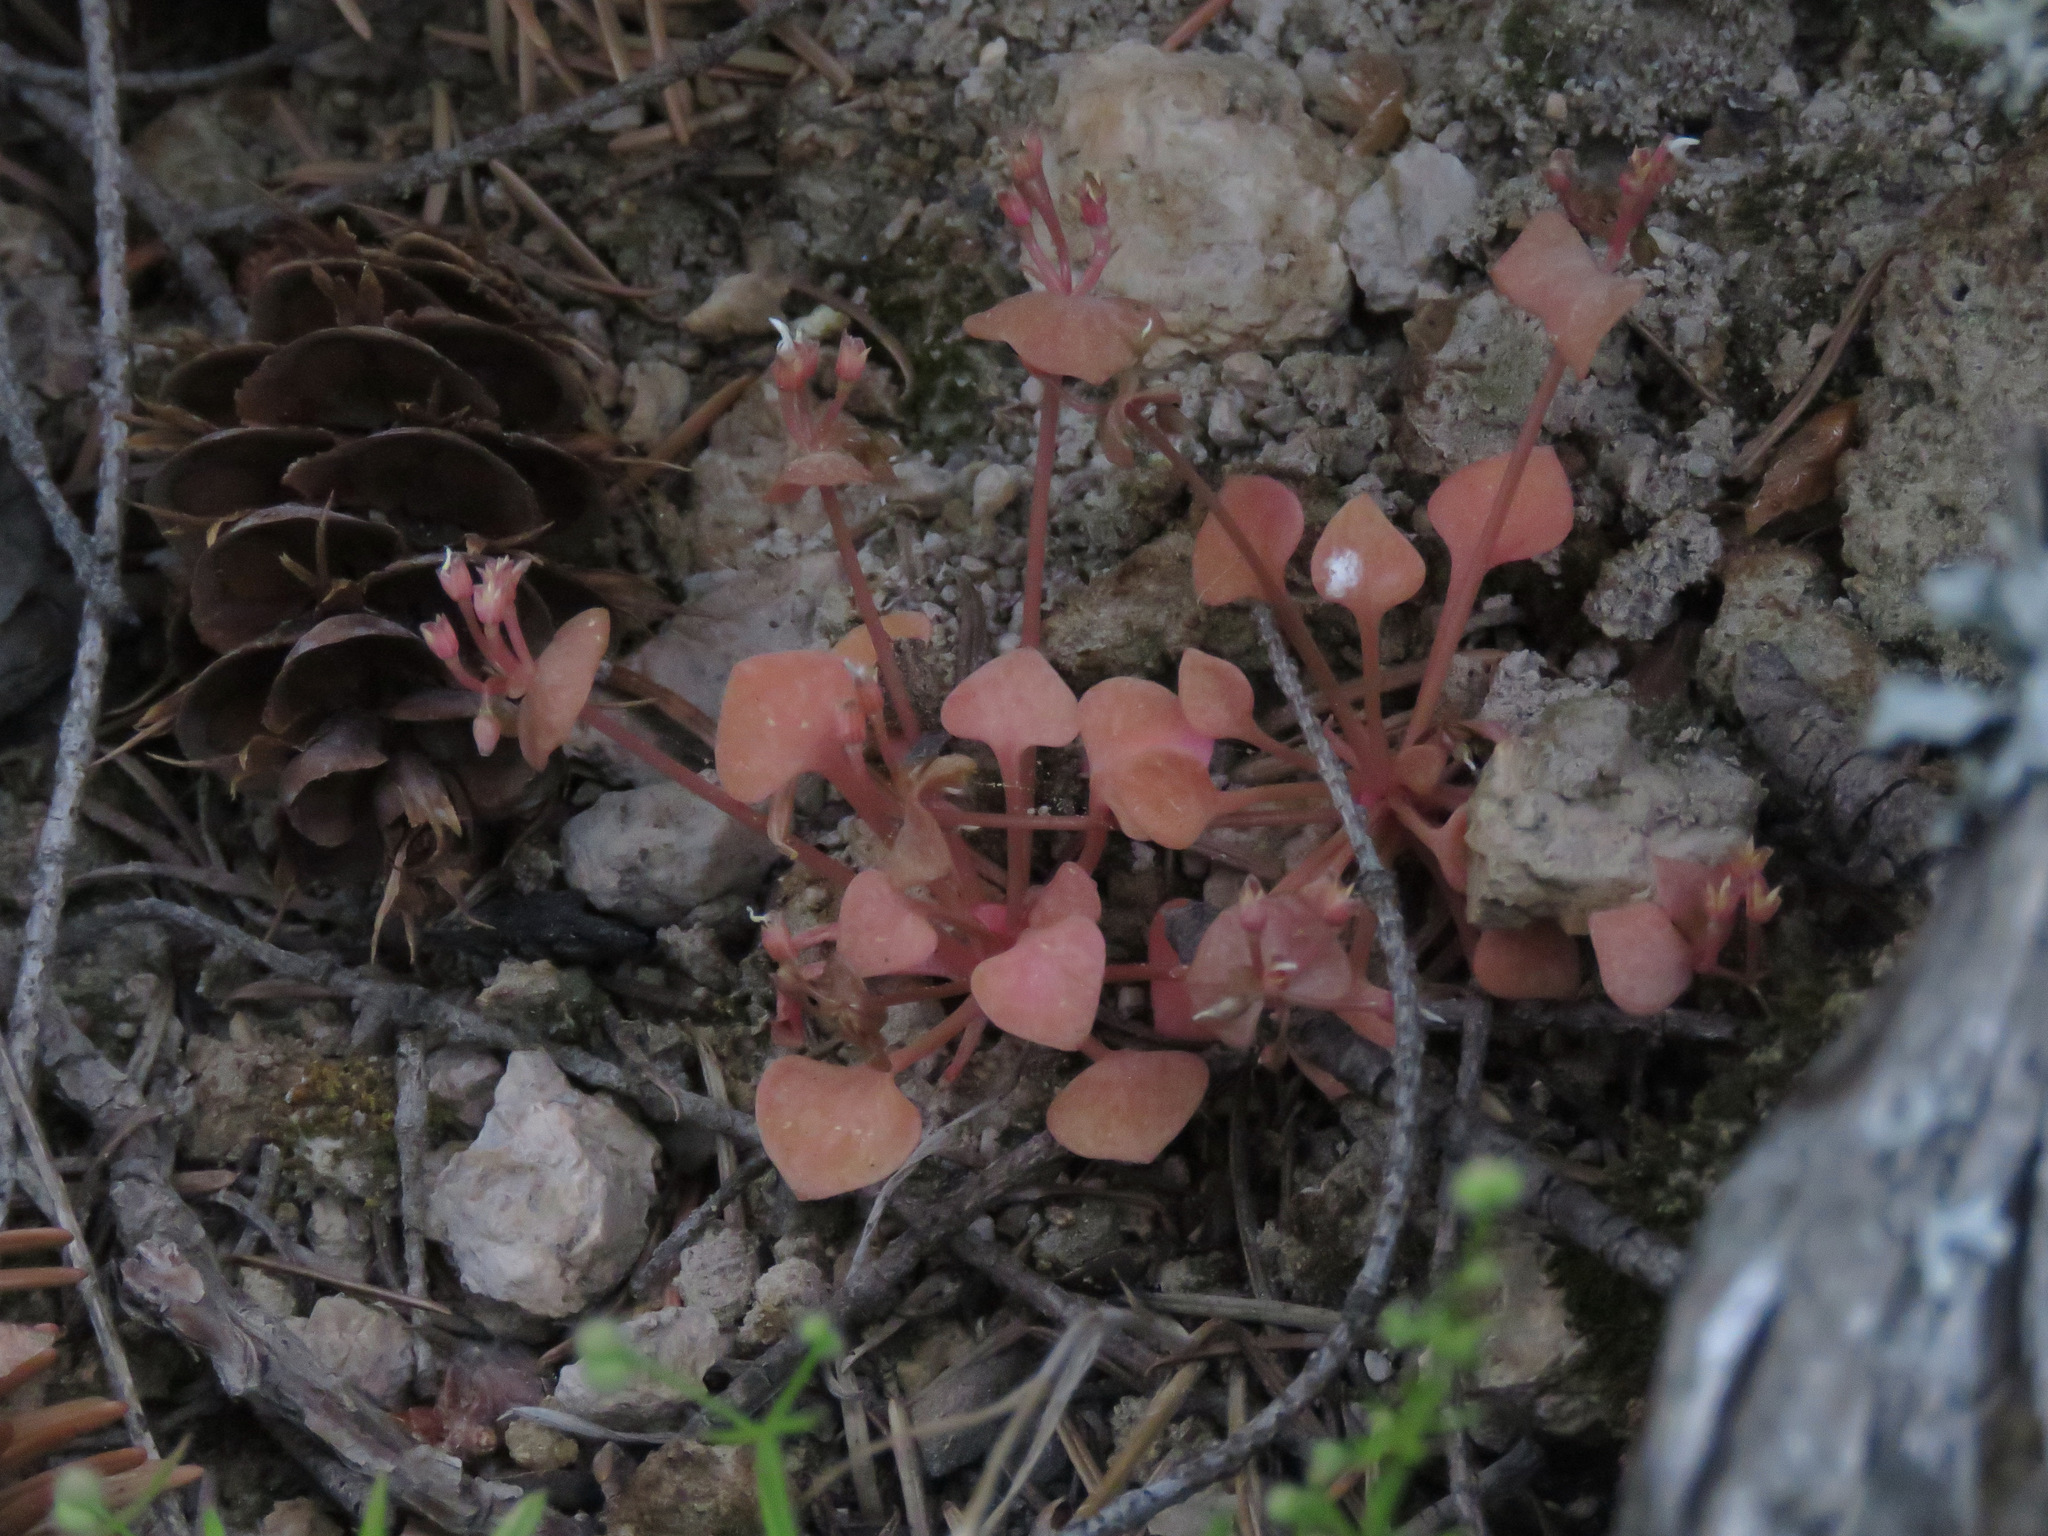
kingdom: Plantae
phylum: Tracheophyta
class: Magnoliopsida
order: Caryophyllales
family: Montiaceae
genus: Claytonia
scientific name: Claytonia rubra
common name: Erubescent miner's-lettuce
